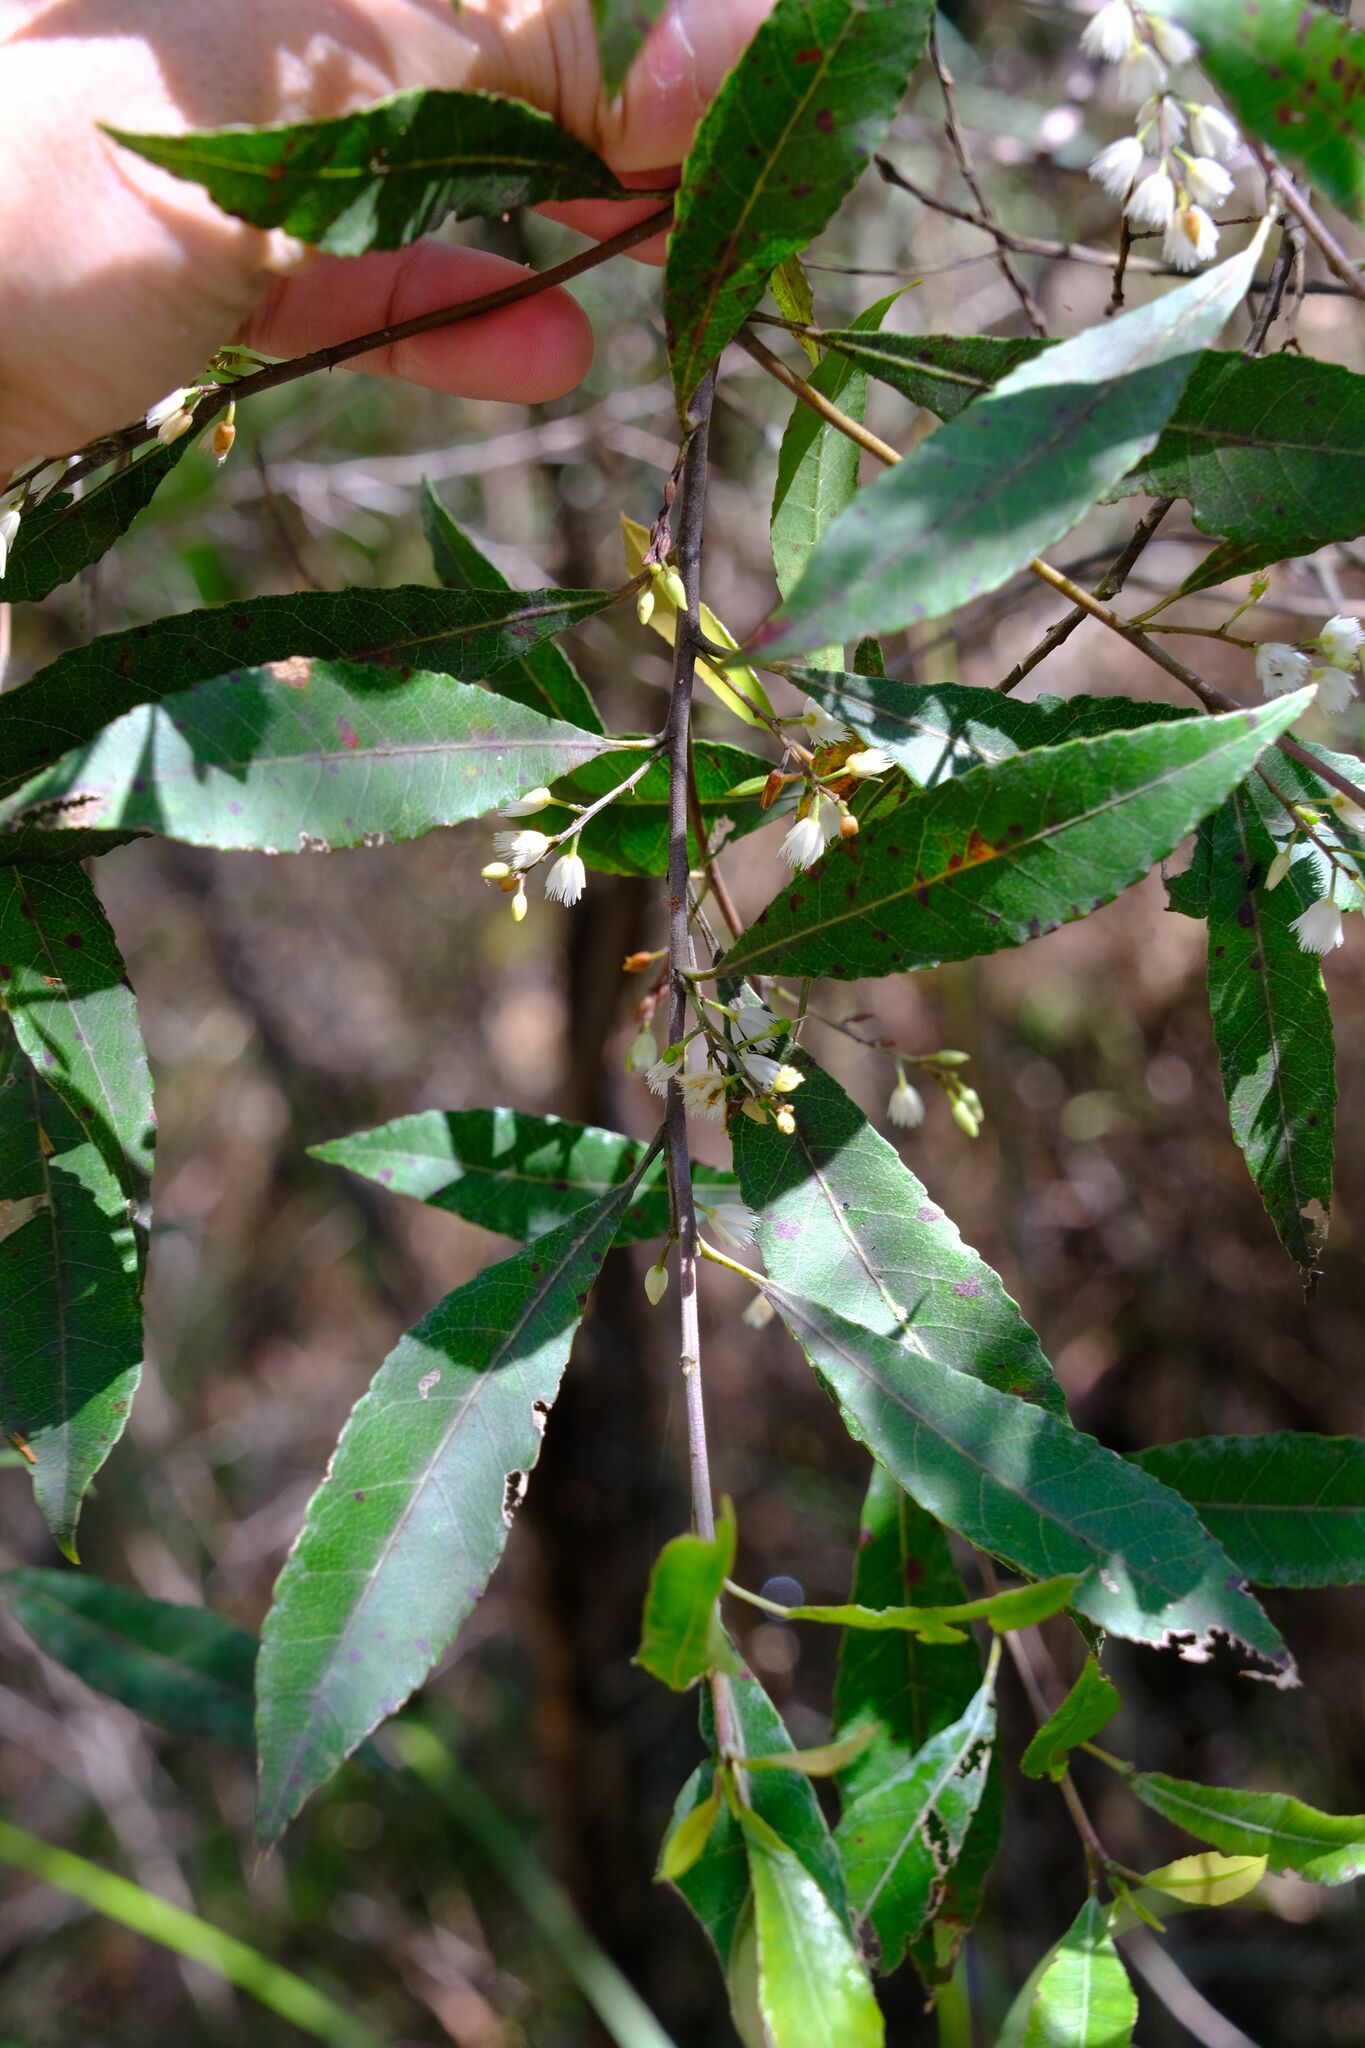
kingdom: Plantae
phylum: Tracheophyta
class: Magnoliopsida
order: Oxalidales
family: Elaeocarpaceae
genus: Elaeocarpus
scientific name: Elaeocarpus reticulatus
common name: Ash quandong
